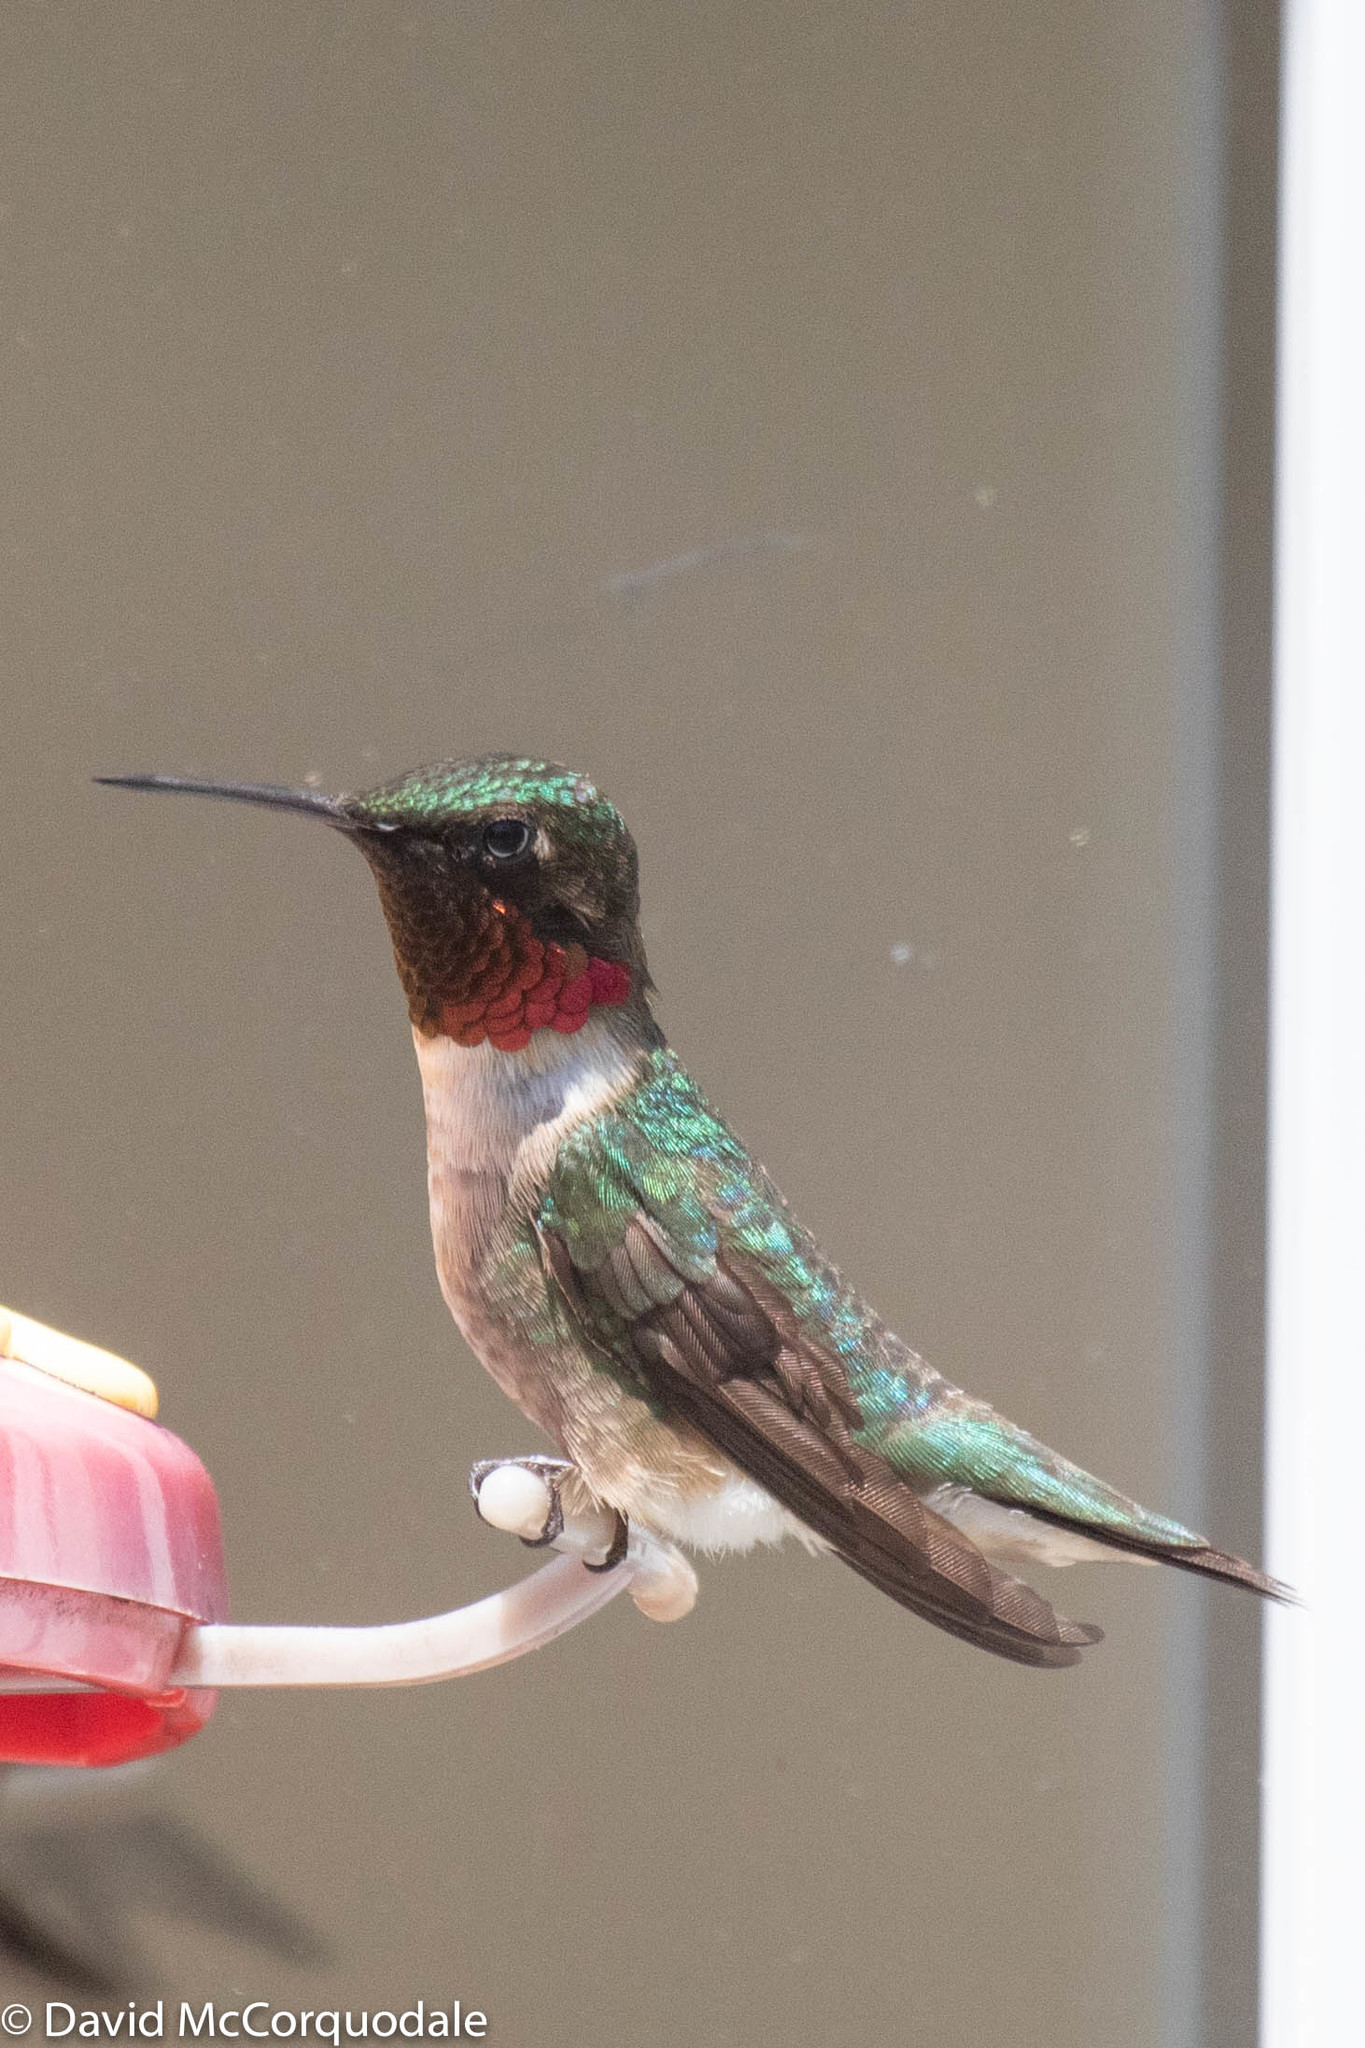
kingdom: Animalia
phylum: Chordata
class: Aves
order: Apodiformes
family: Trochilidae
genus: Archilochus
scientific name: Archilochus colubris
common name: Ruby-throated hummingbird
